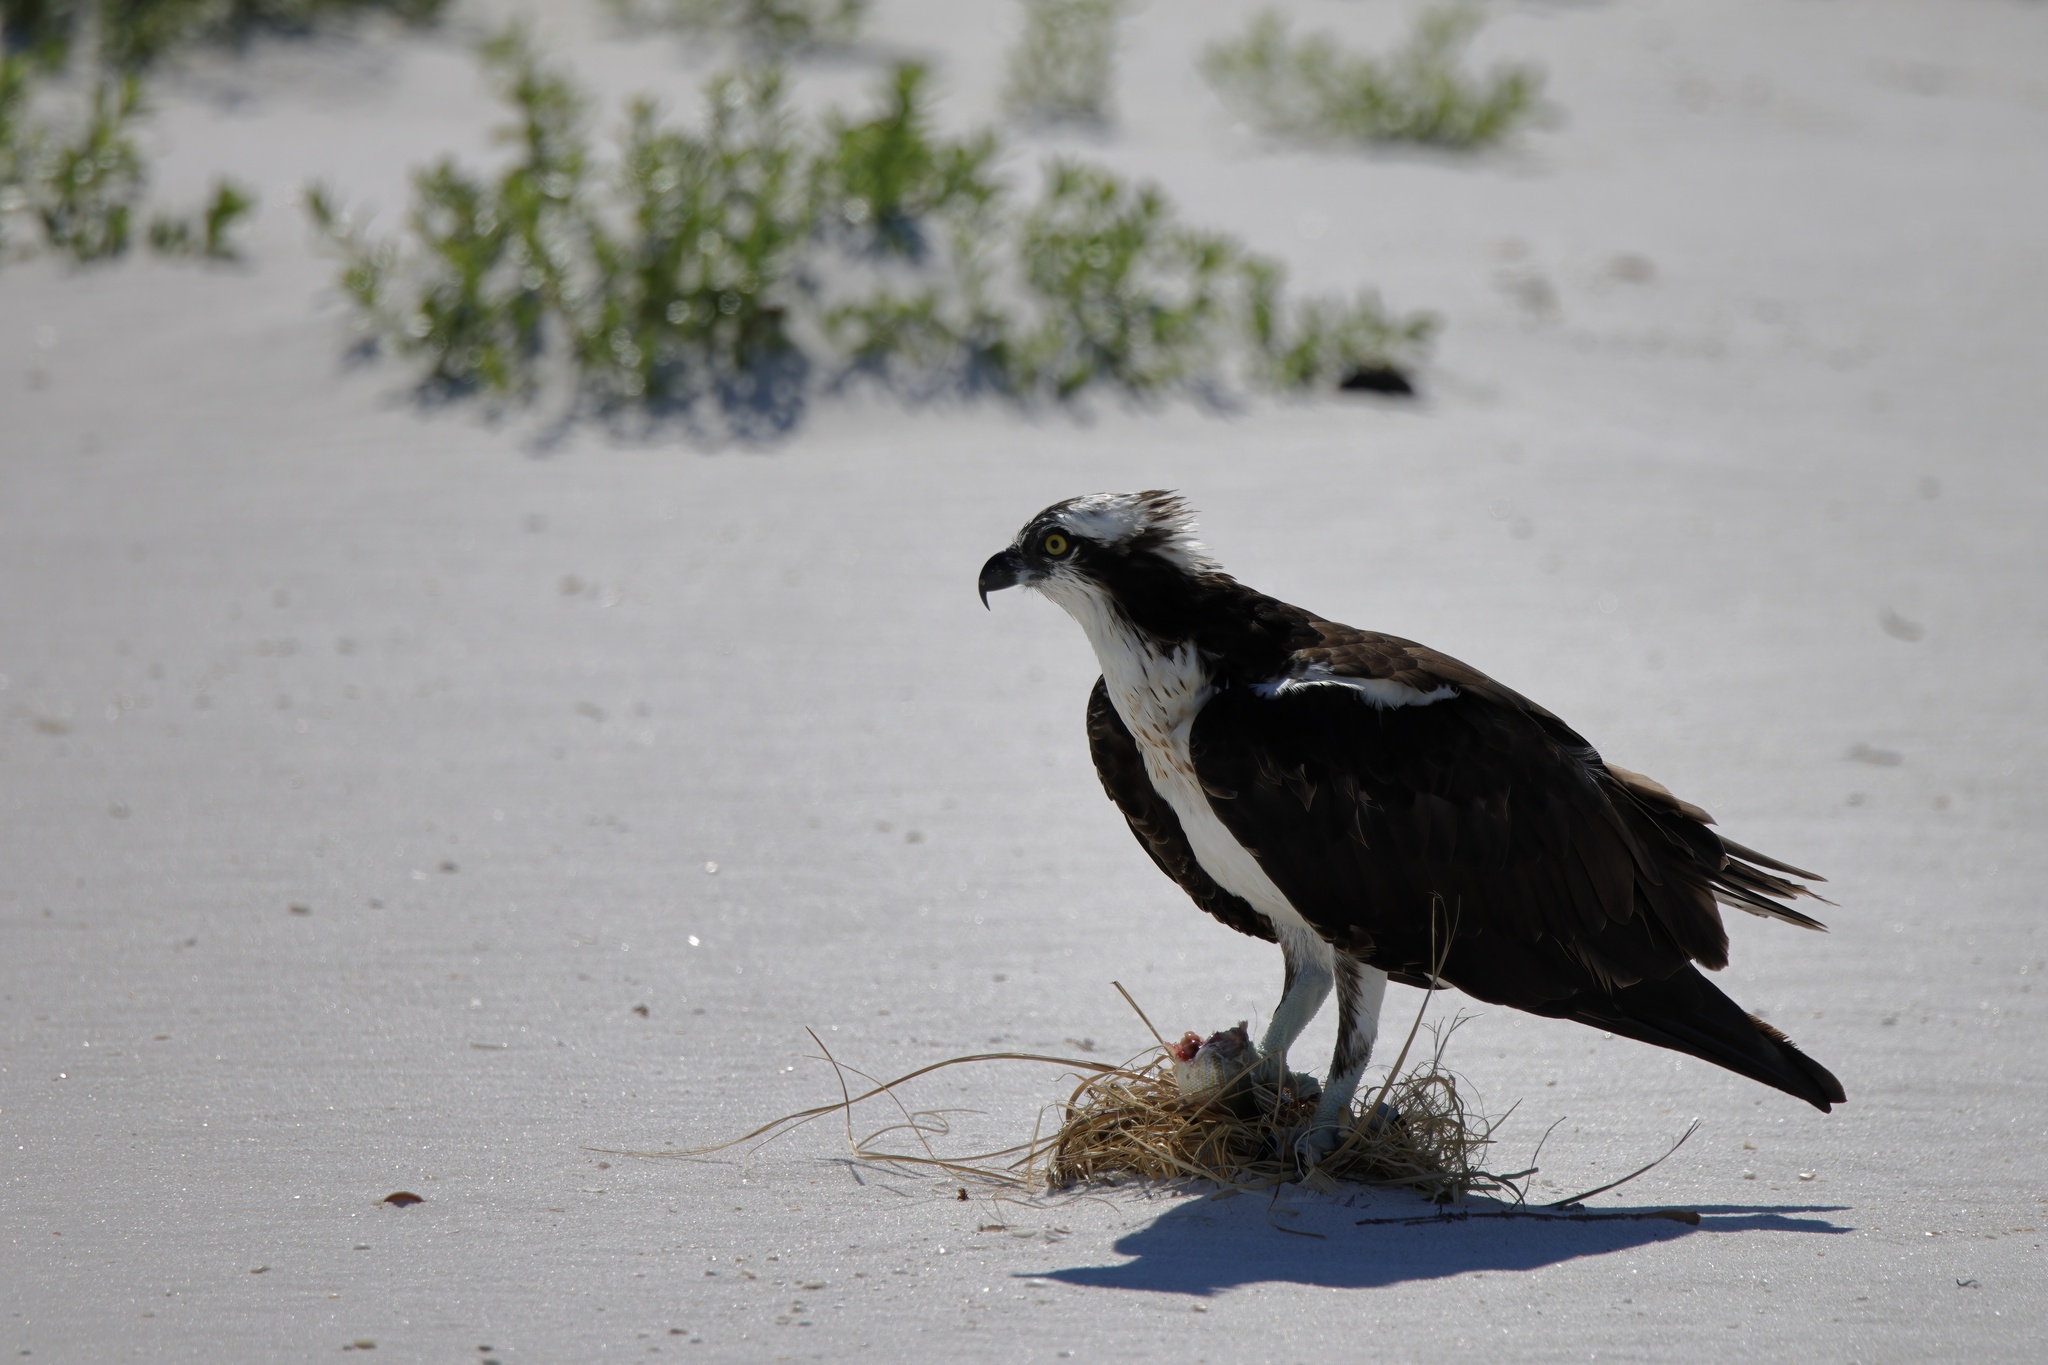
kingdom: Animalia
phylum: Chordata
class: Aves
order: Accipitriformes
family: Pandionidae
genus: Pandion
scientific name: Pandion haliaetus
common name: Osprey
